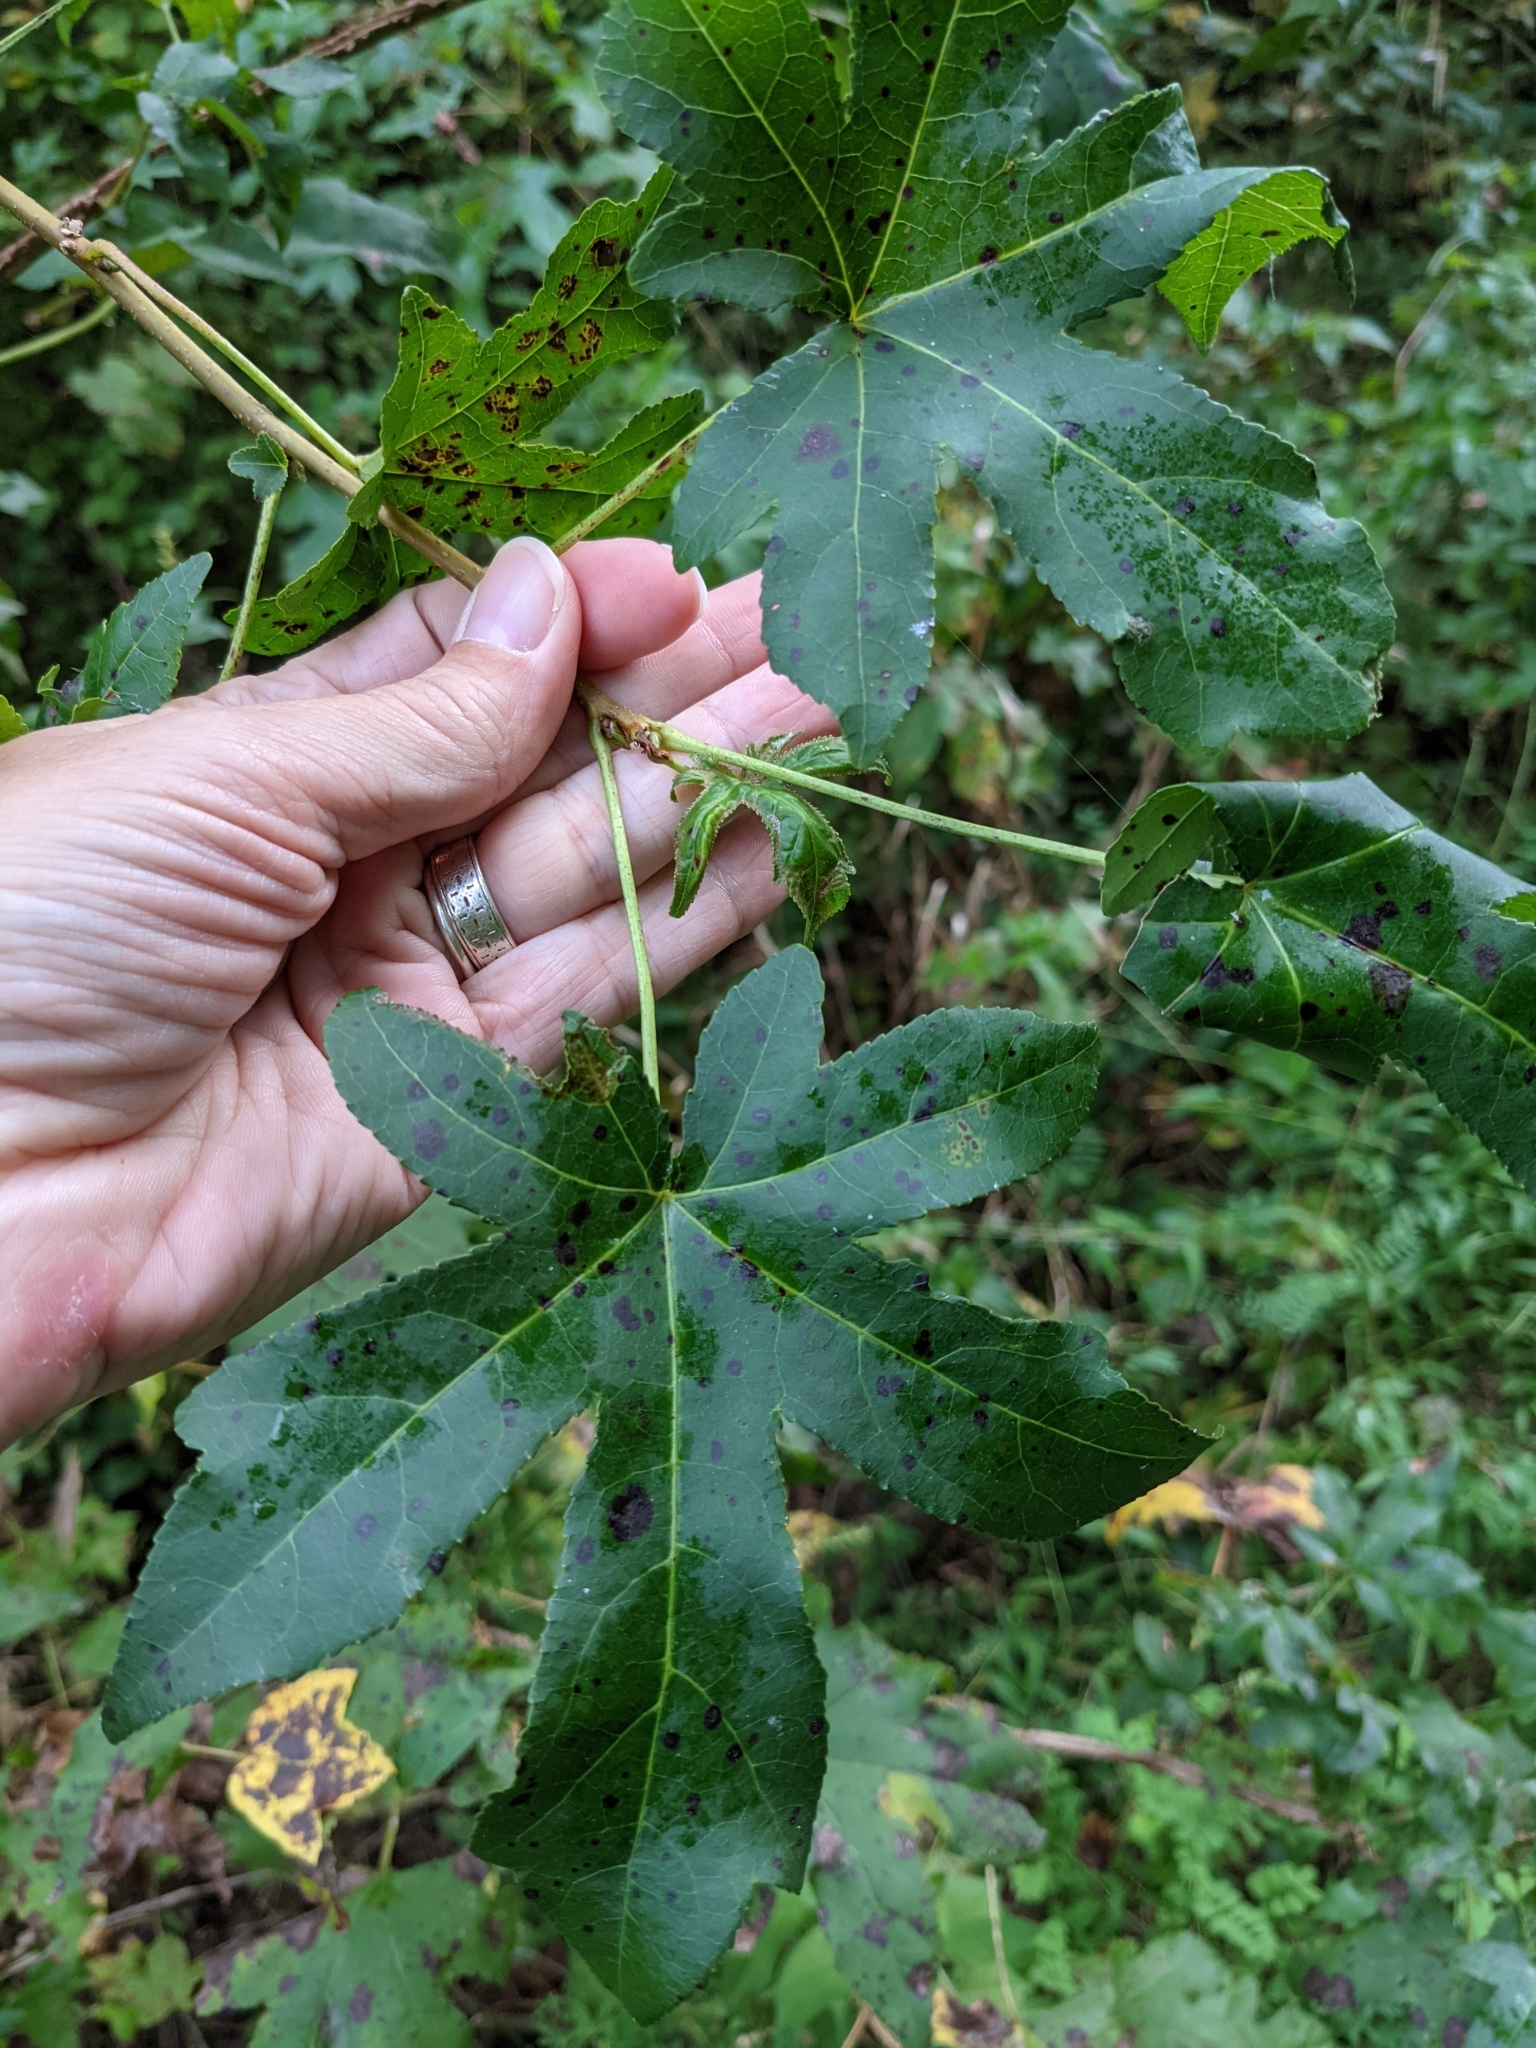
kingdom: Plantae
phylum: Tracheophyta
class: Magnoliopsida
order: Saxifragales
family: Altingiaceae
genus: Liquidambar
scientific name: Liquidambar styraciflua
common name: Sweet gum
